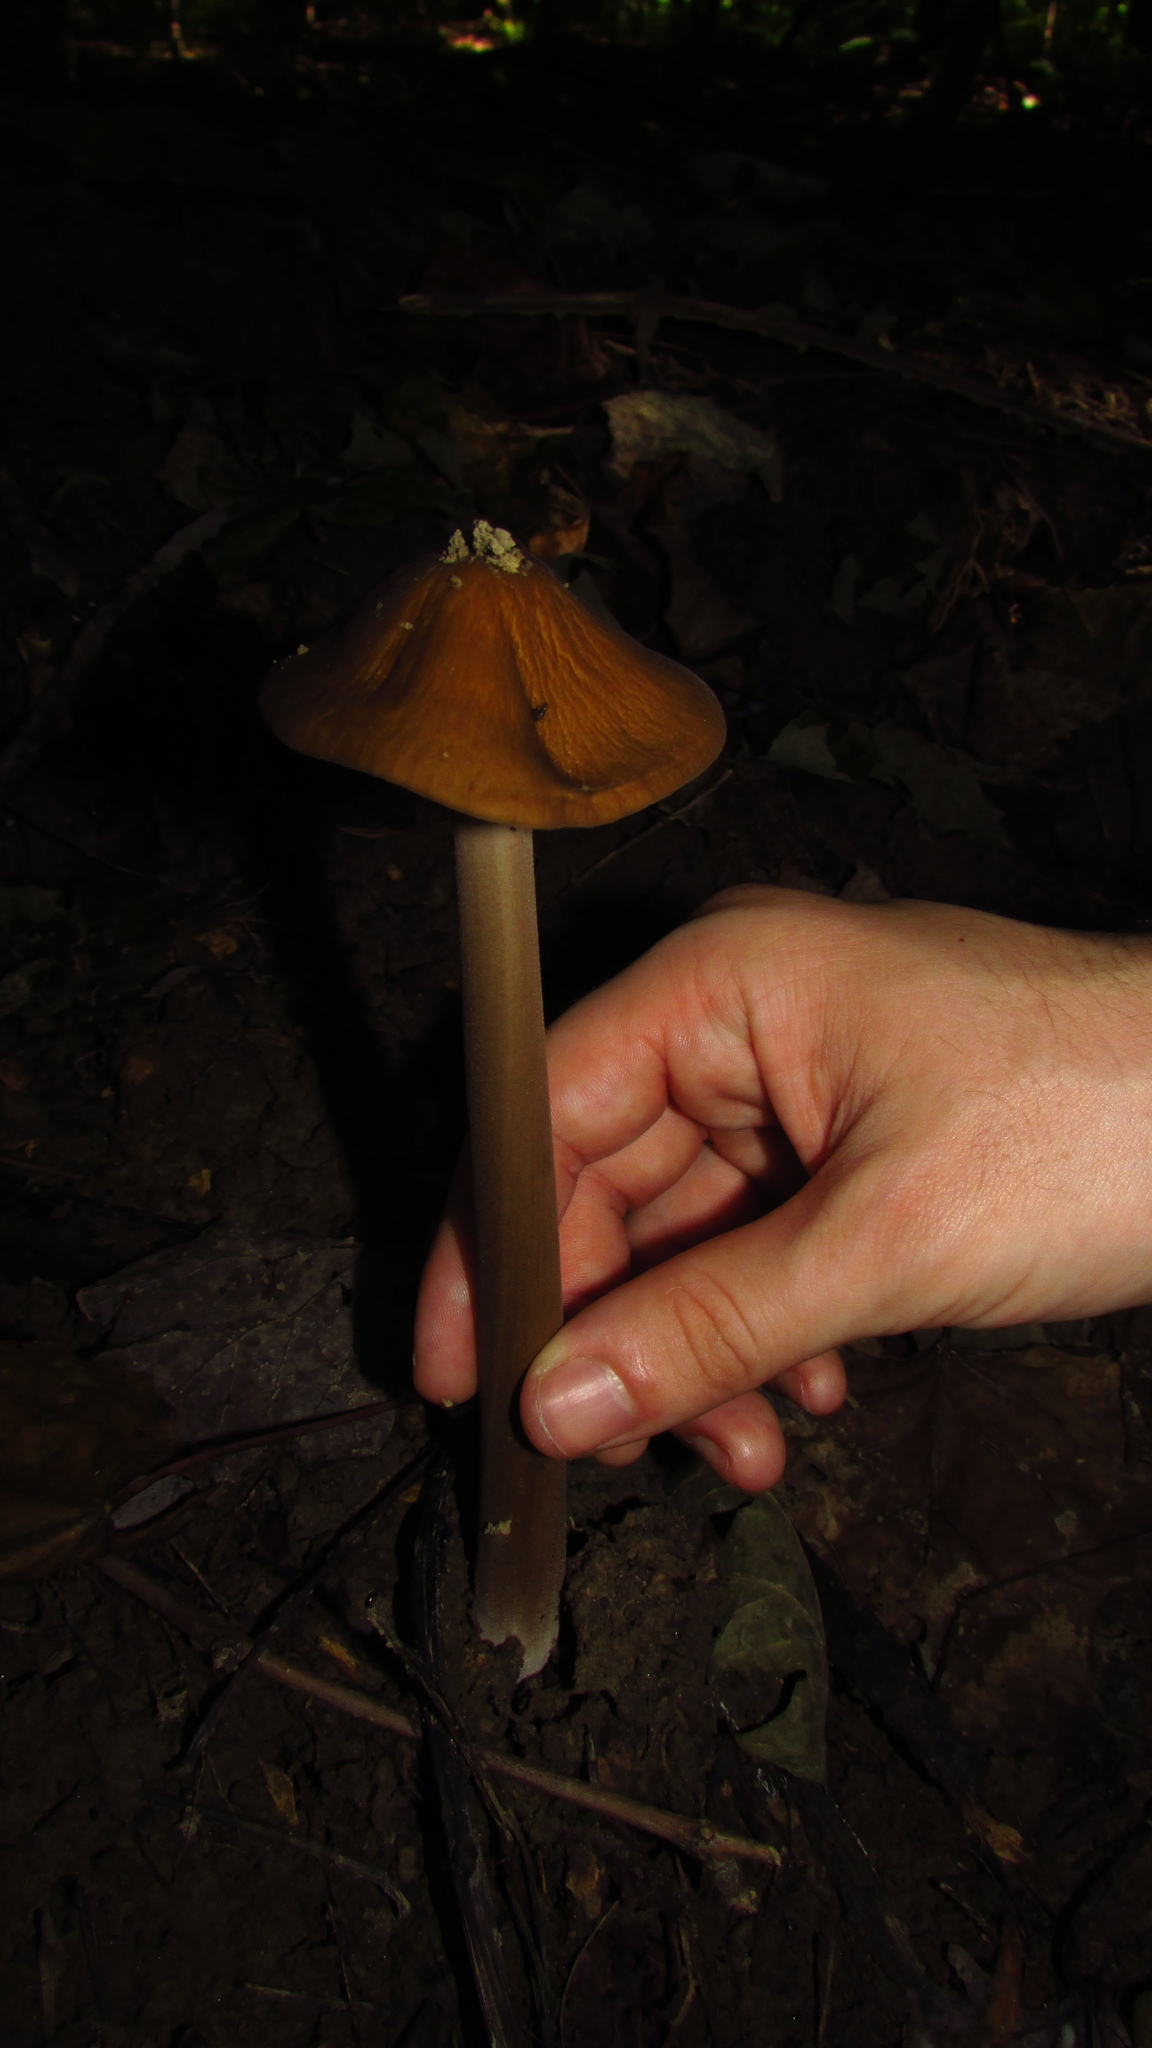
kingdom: Fungi
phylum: Basidiomycota
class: Agaricomycetes
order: Agaricales
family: Physalacriaceae
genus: Hymenopellis
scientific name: Hymenopellis furfuracea
